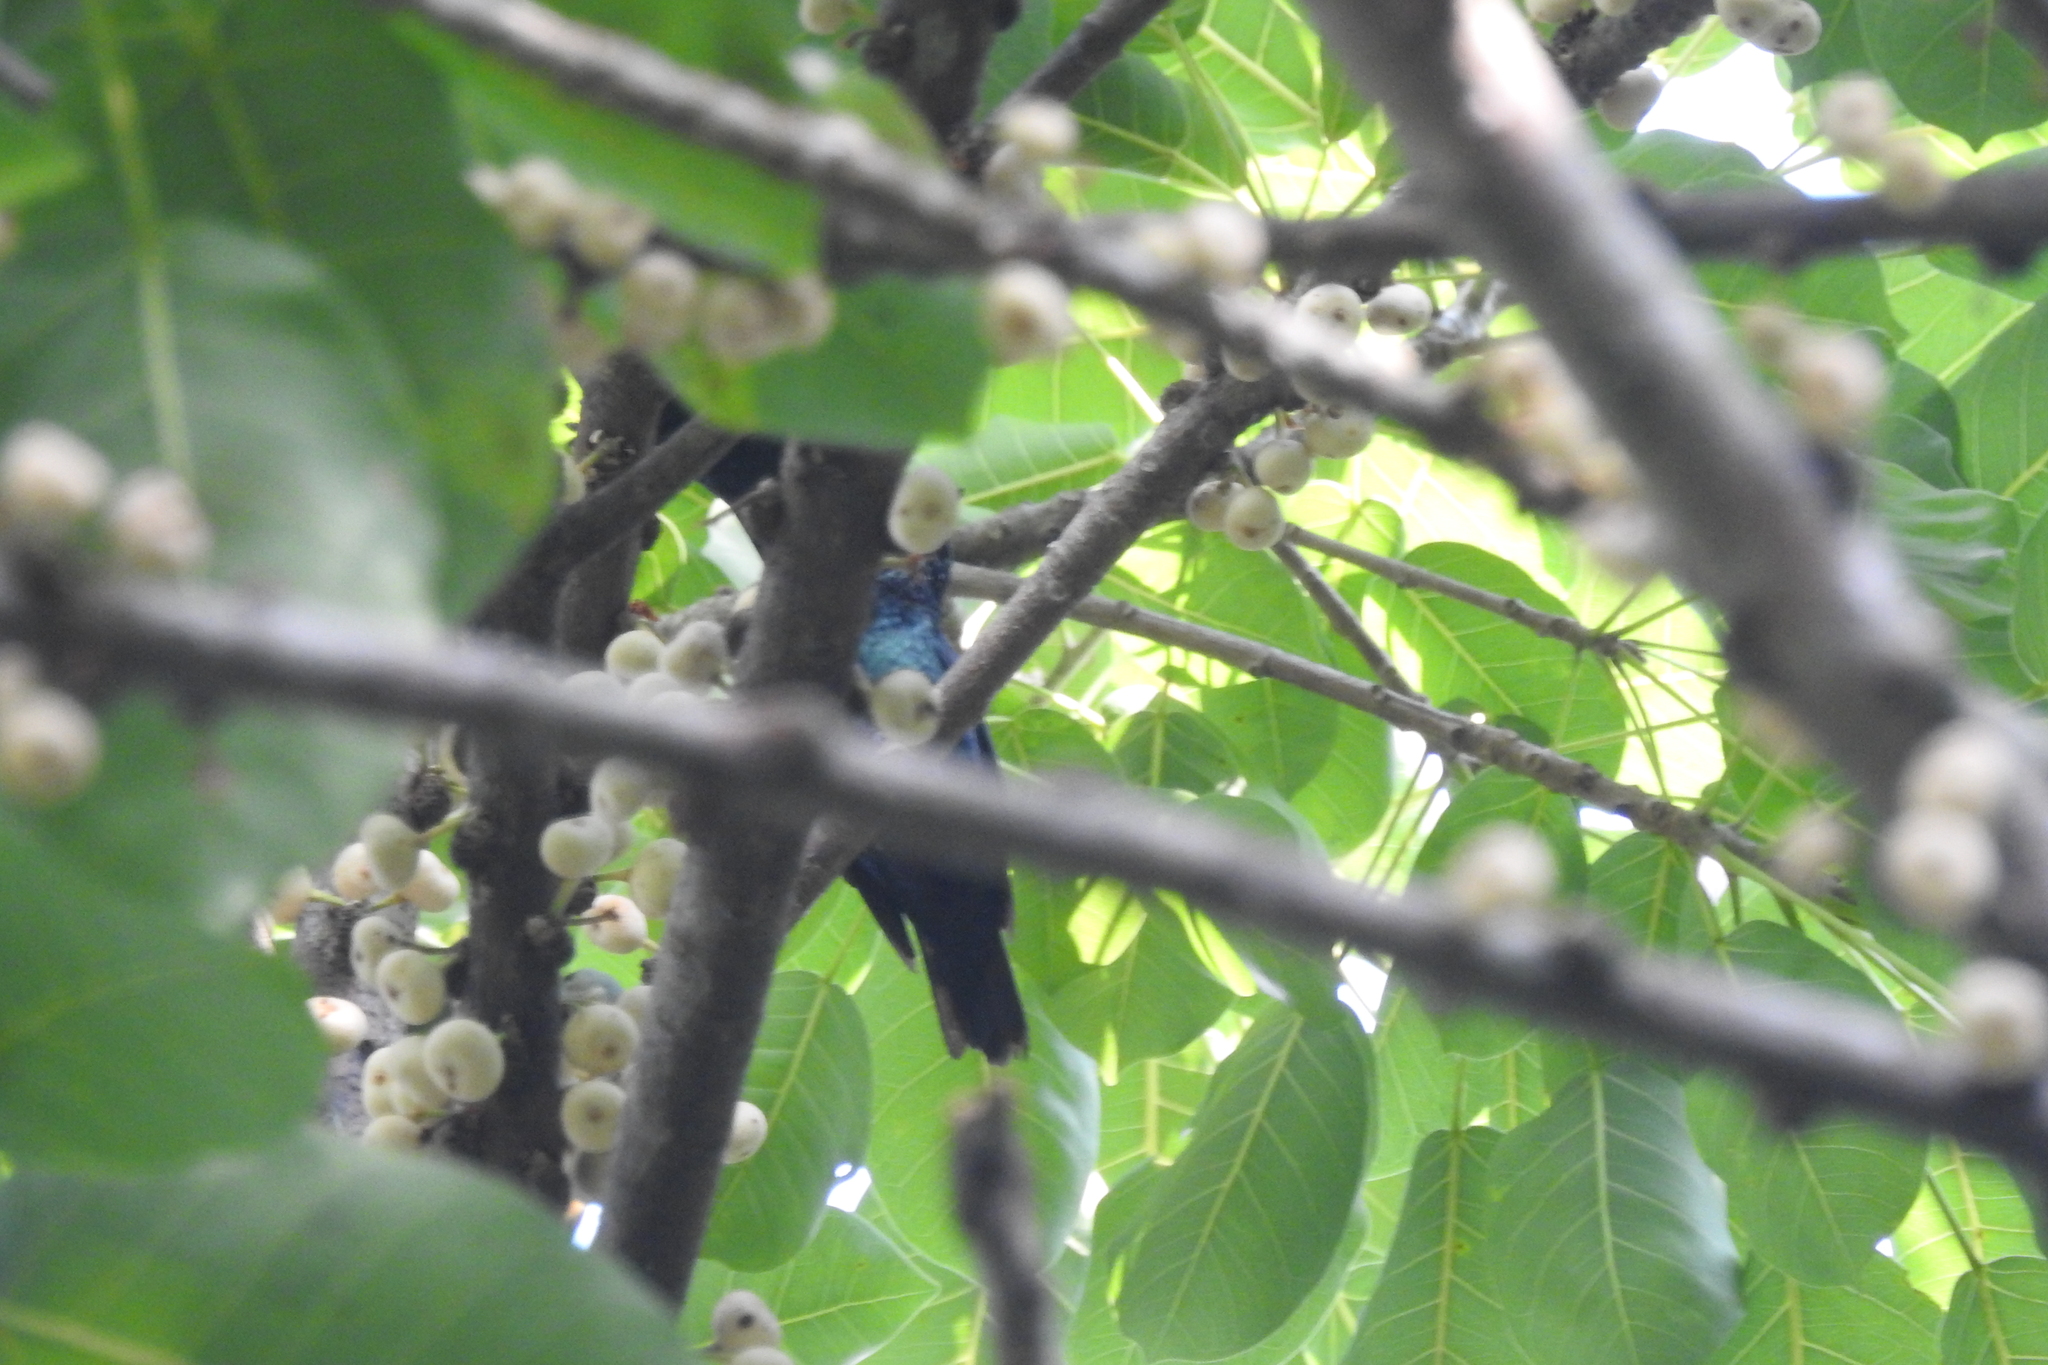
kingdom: Animalia
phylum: Chordata
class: Aves
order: Passeriformes
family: Nectariniidae
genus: Leptocoma
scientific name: Leptocoma calcostetha
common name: Copper-throated sunbird
